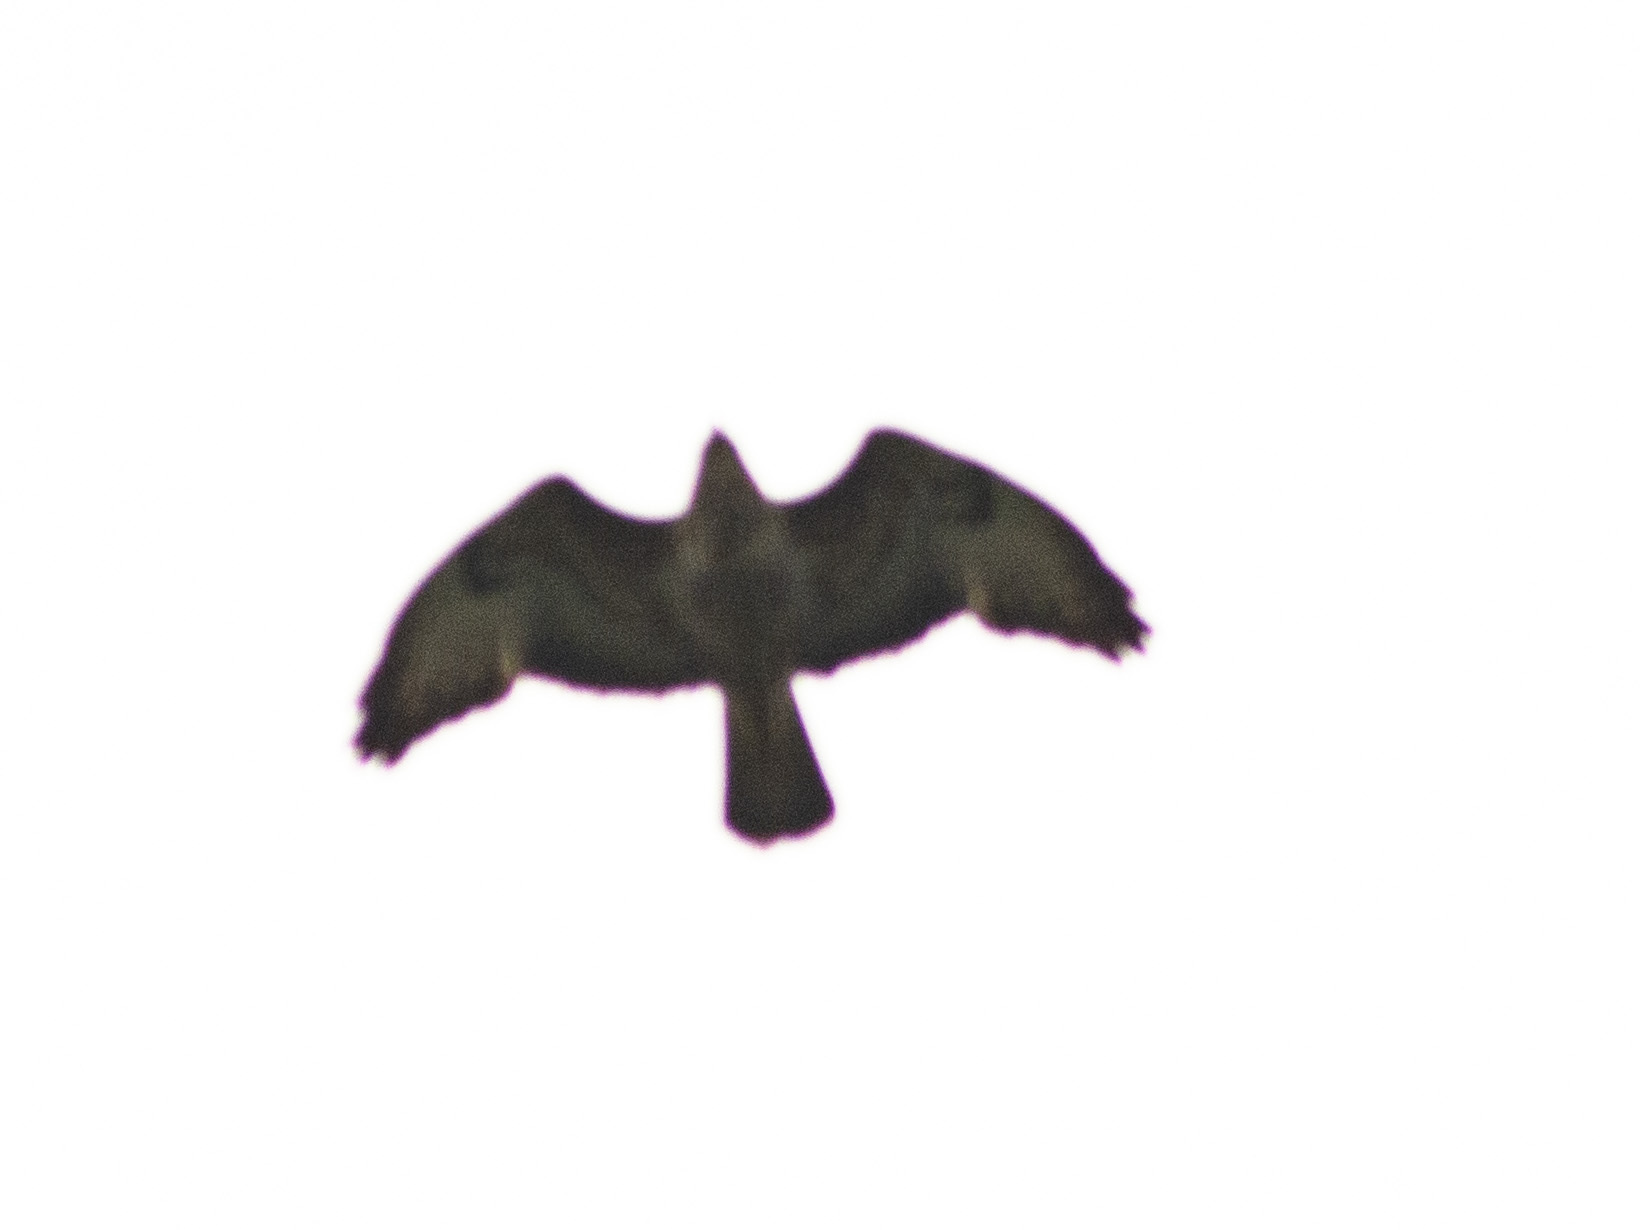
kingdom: Animalia
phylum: Chordata
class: Aves
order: Accipitriformes
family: Accipitridae
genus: Buteo
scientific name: Buteo buteo
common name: Common buzzard
